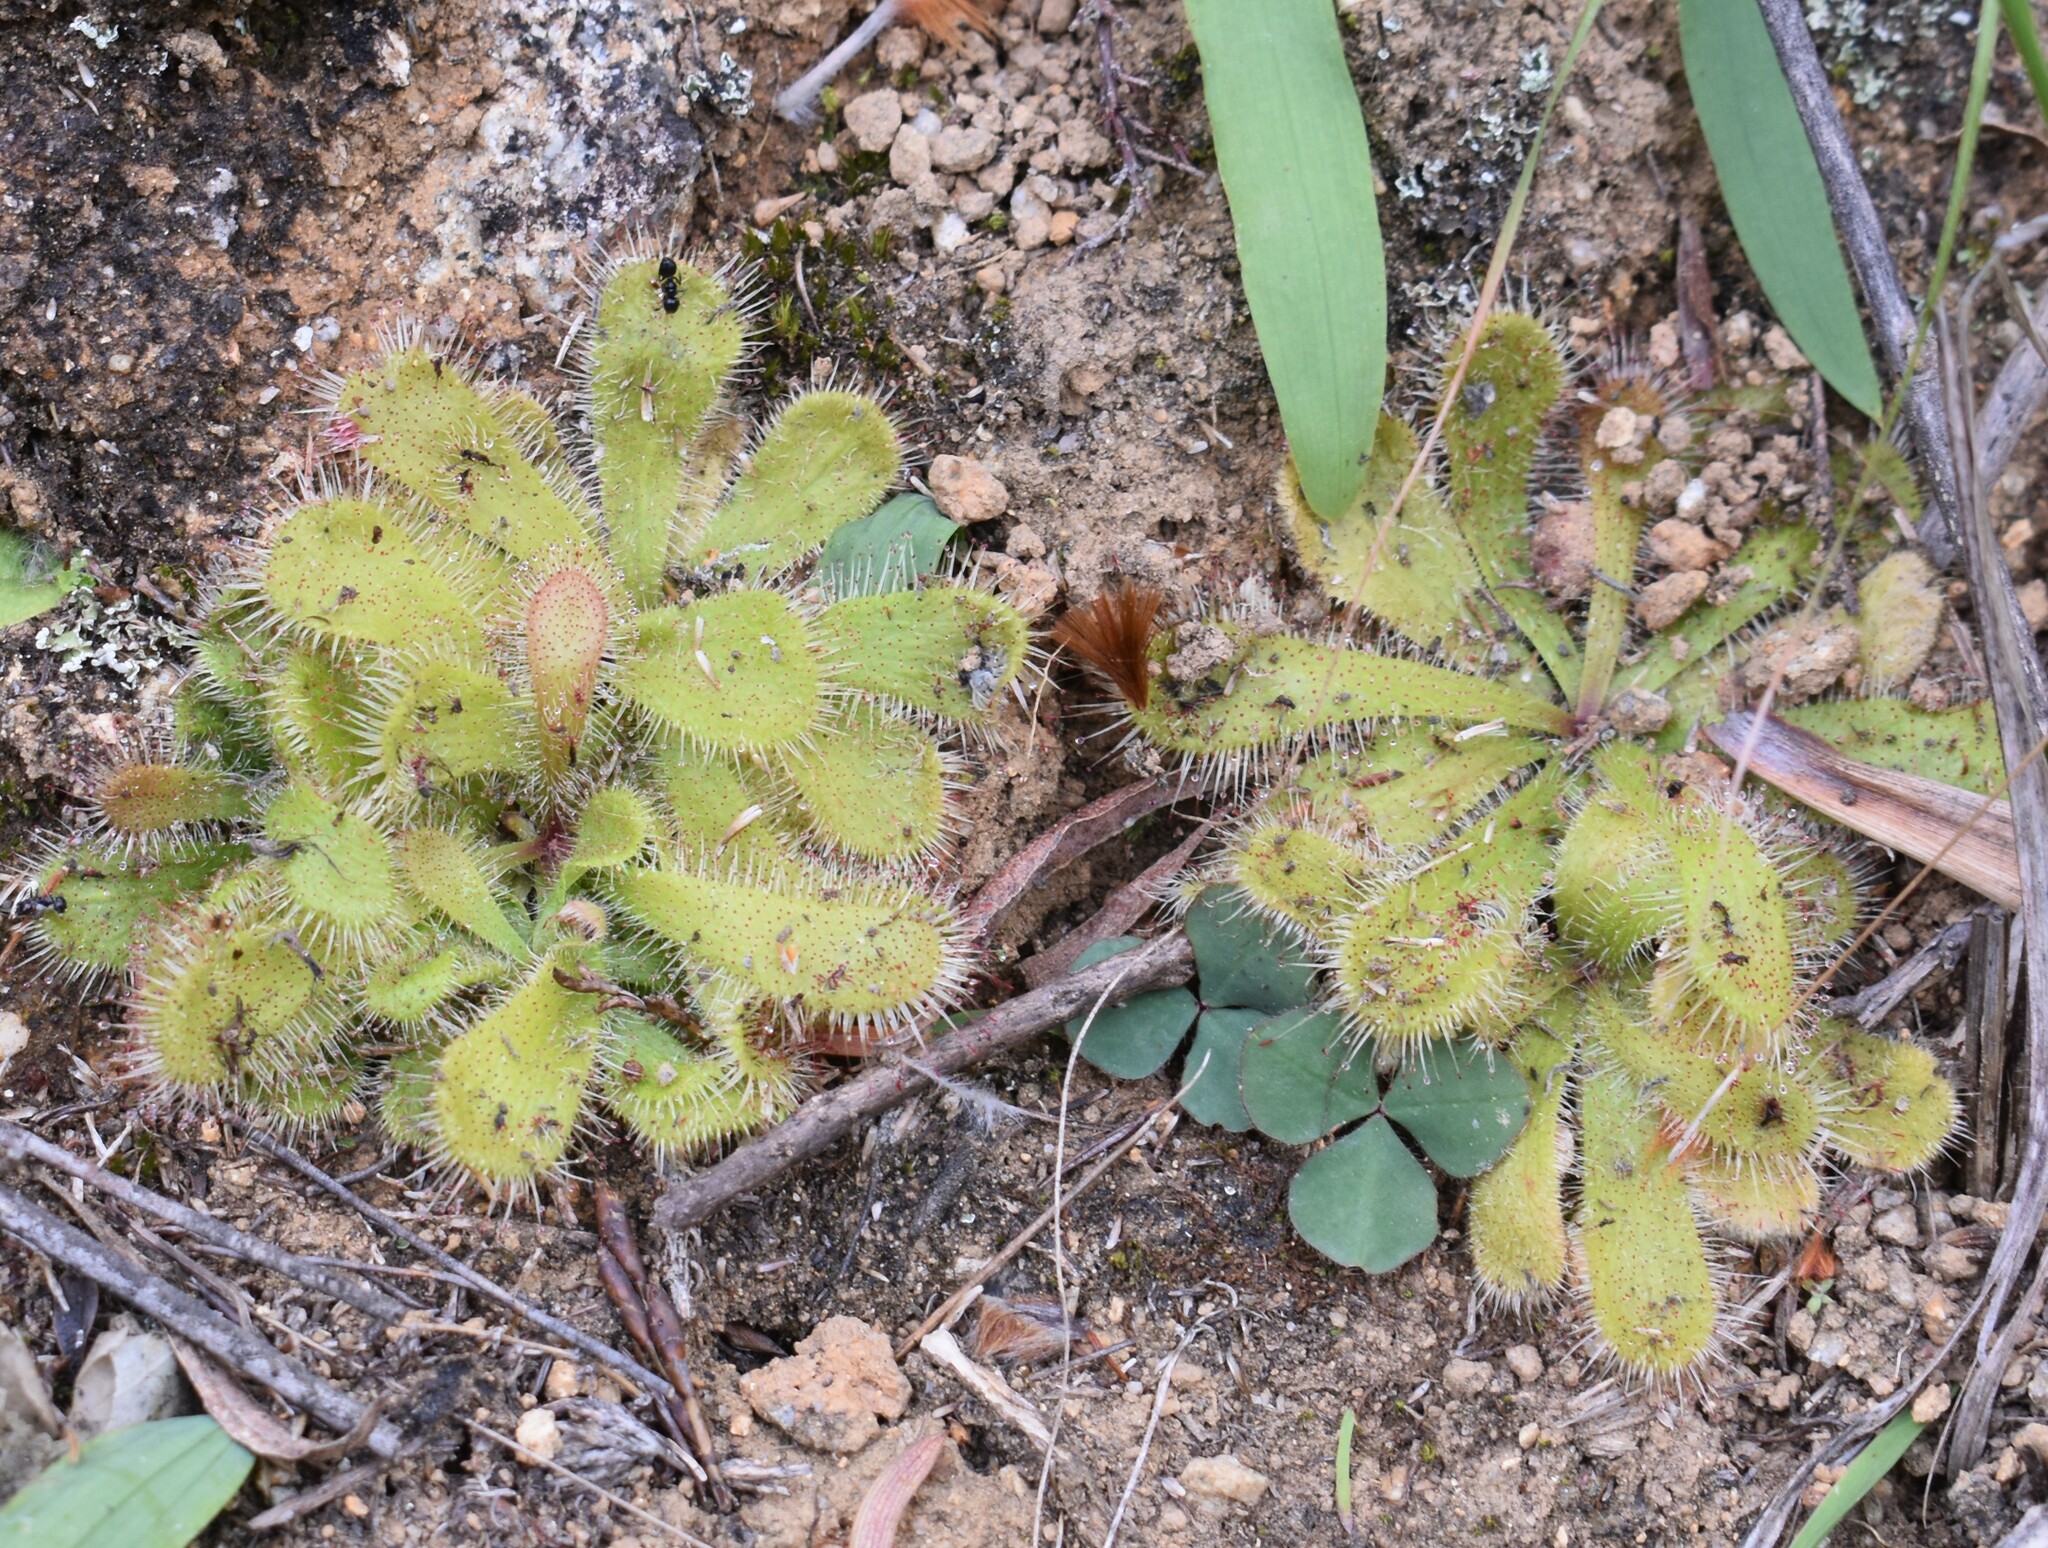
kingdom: Plantae
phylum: Tracheophyta
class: Magnoliopsida
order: Caryophyllales
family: Droseraceae
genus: Drosera
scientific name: Drosera pauciflora
